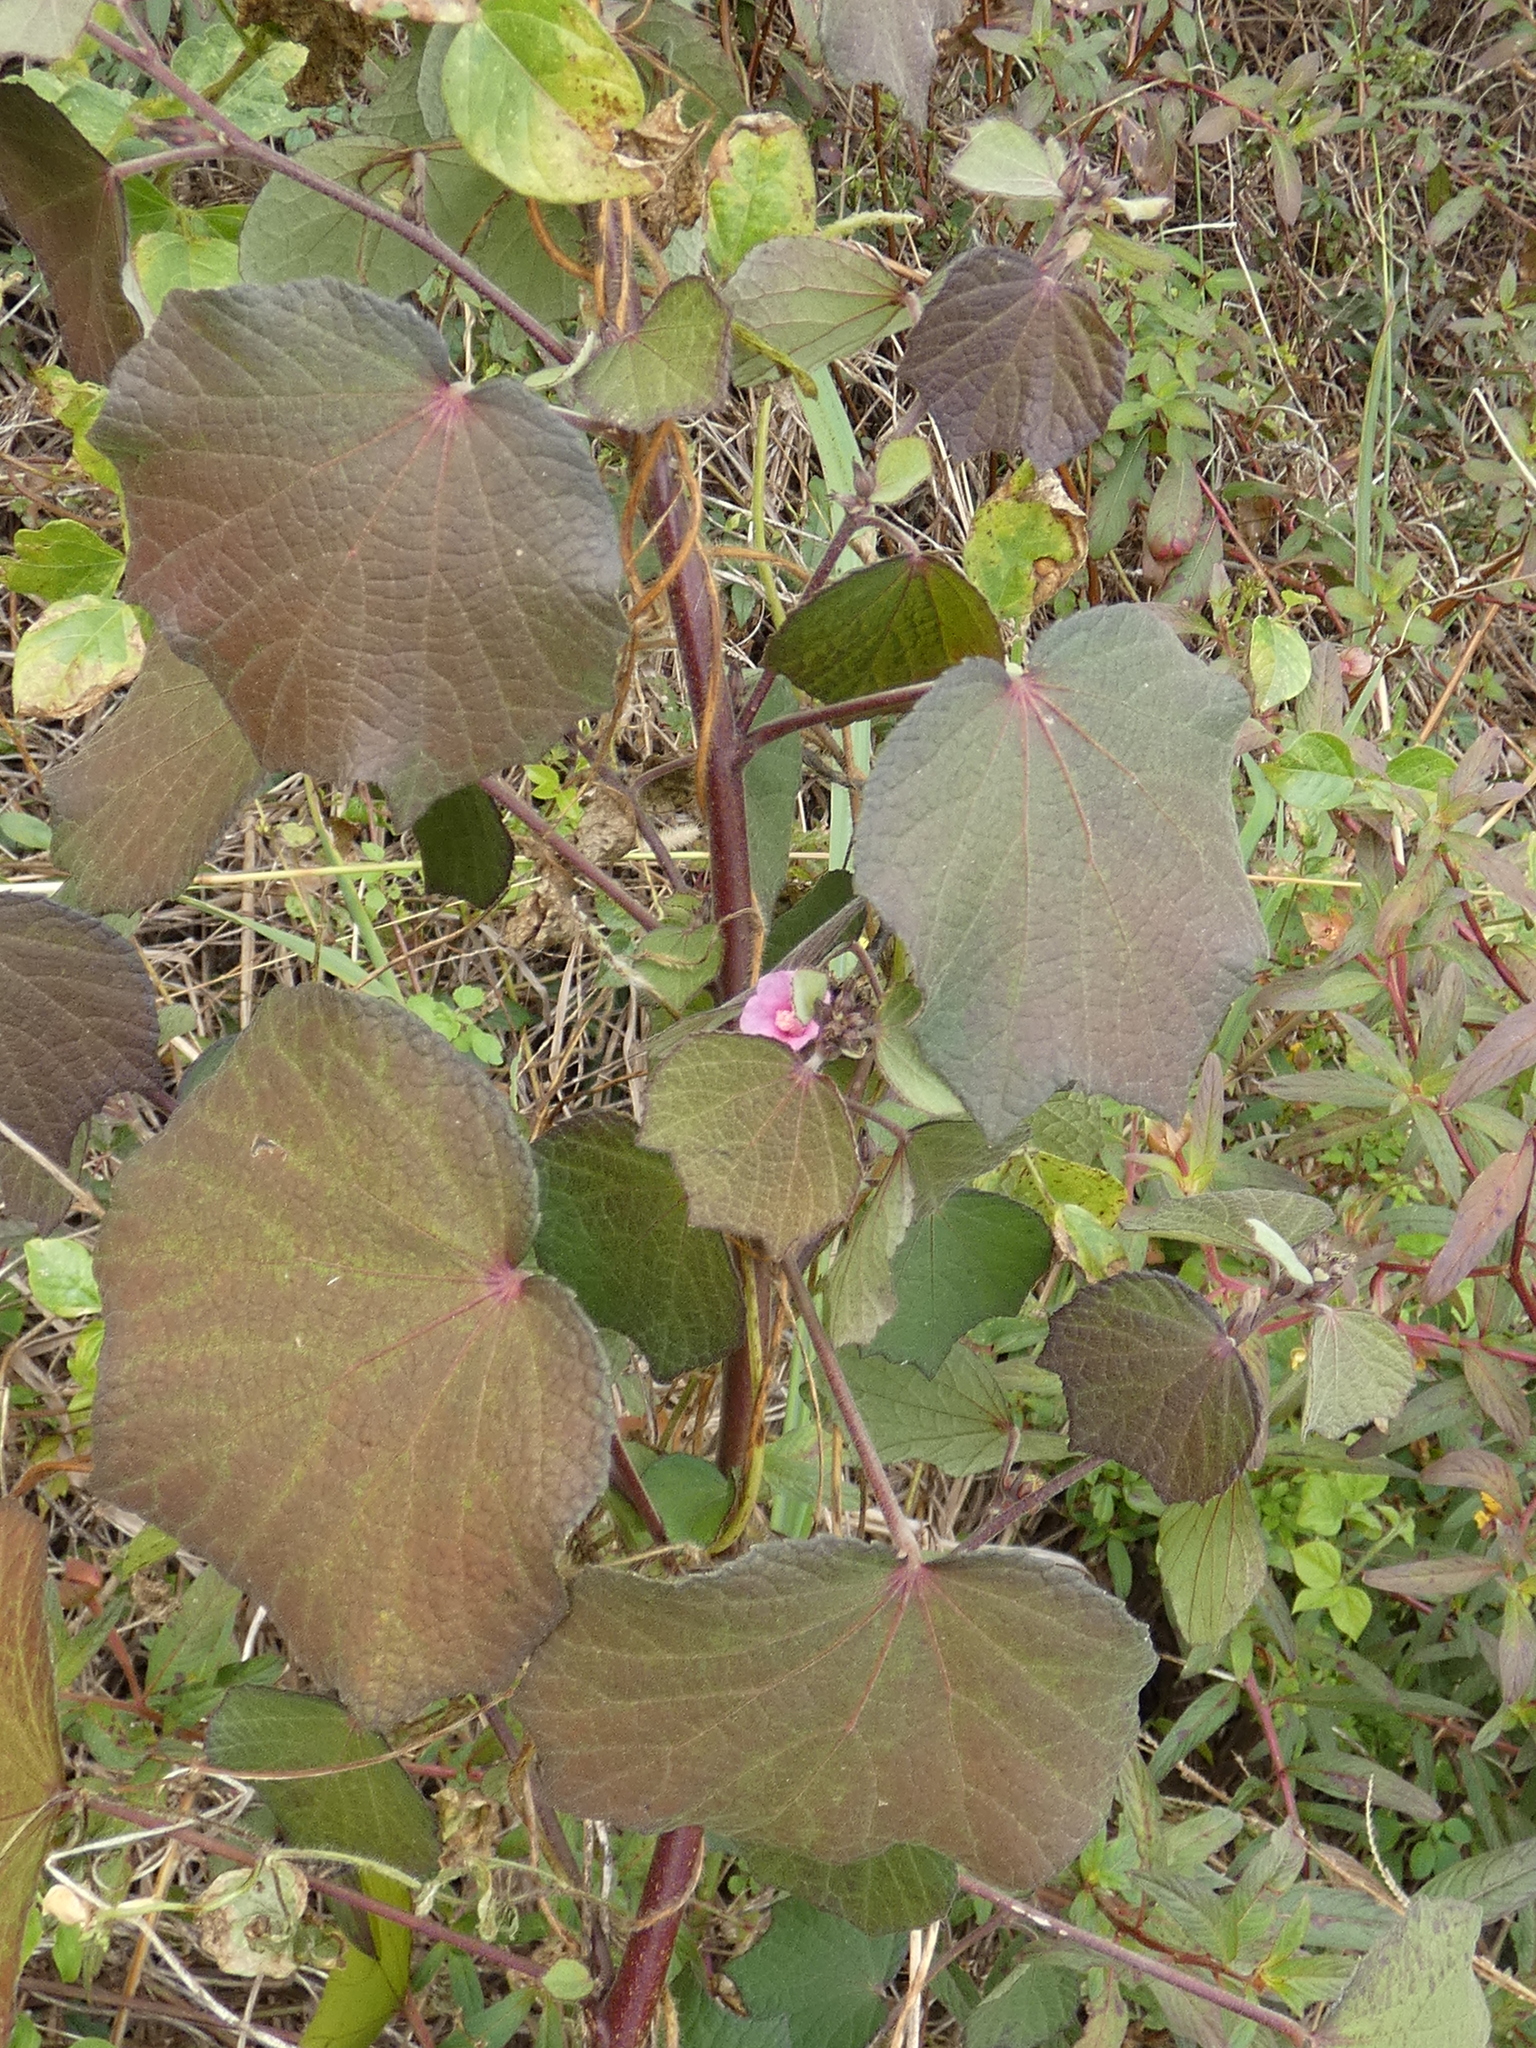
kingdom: Plantae
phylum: Tracheophyta
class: Magnoliopsida
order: Malvales
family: Malvaceae
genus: Urena
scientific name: Urena lobata
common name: Caesarweed
